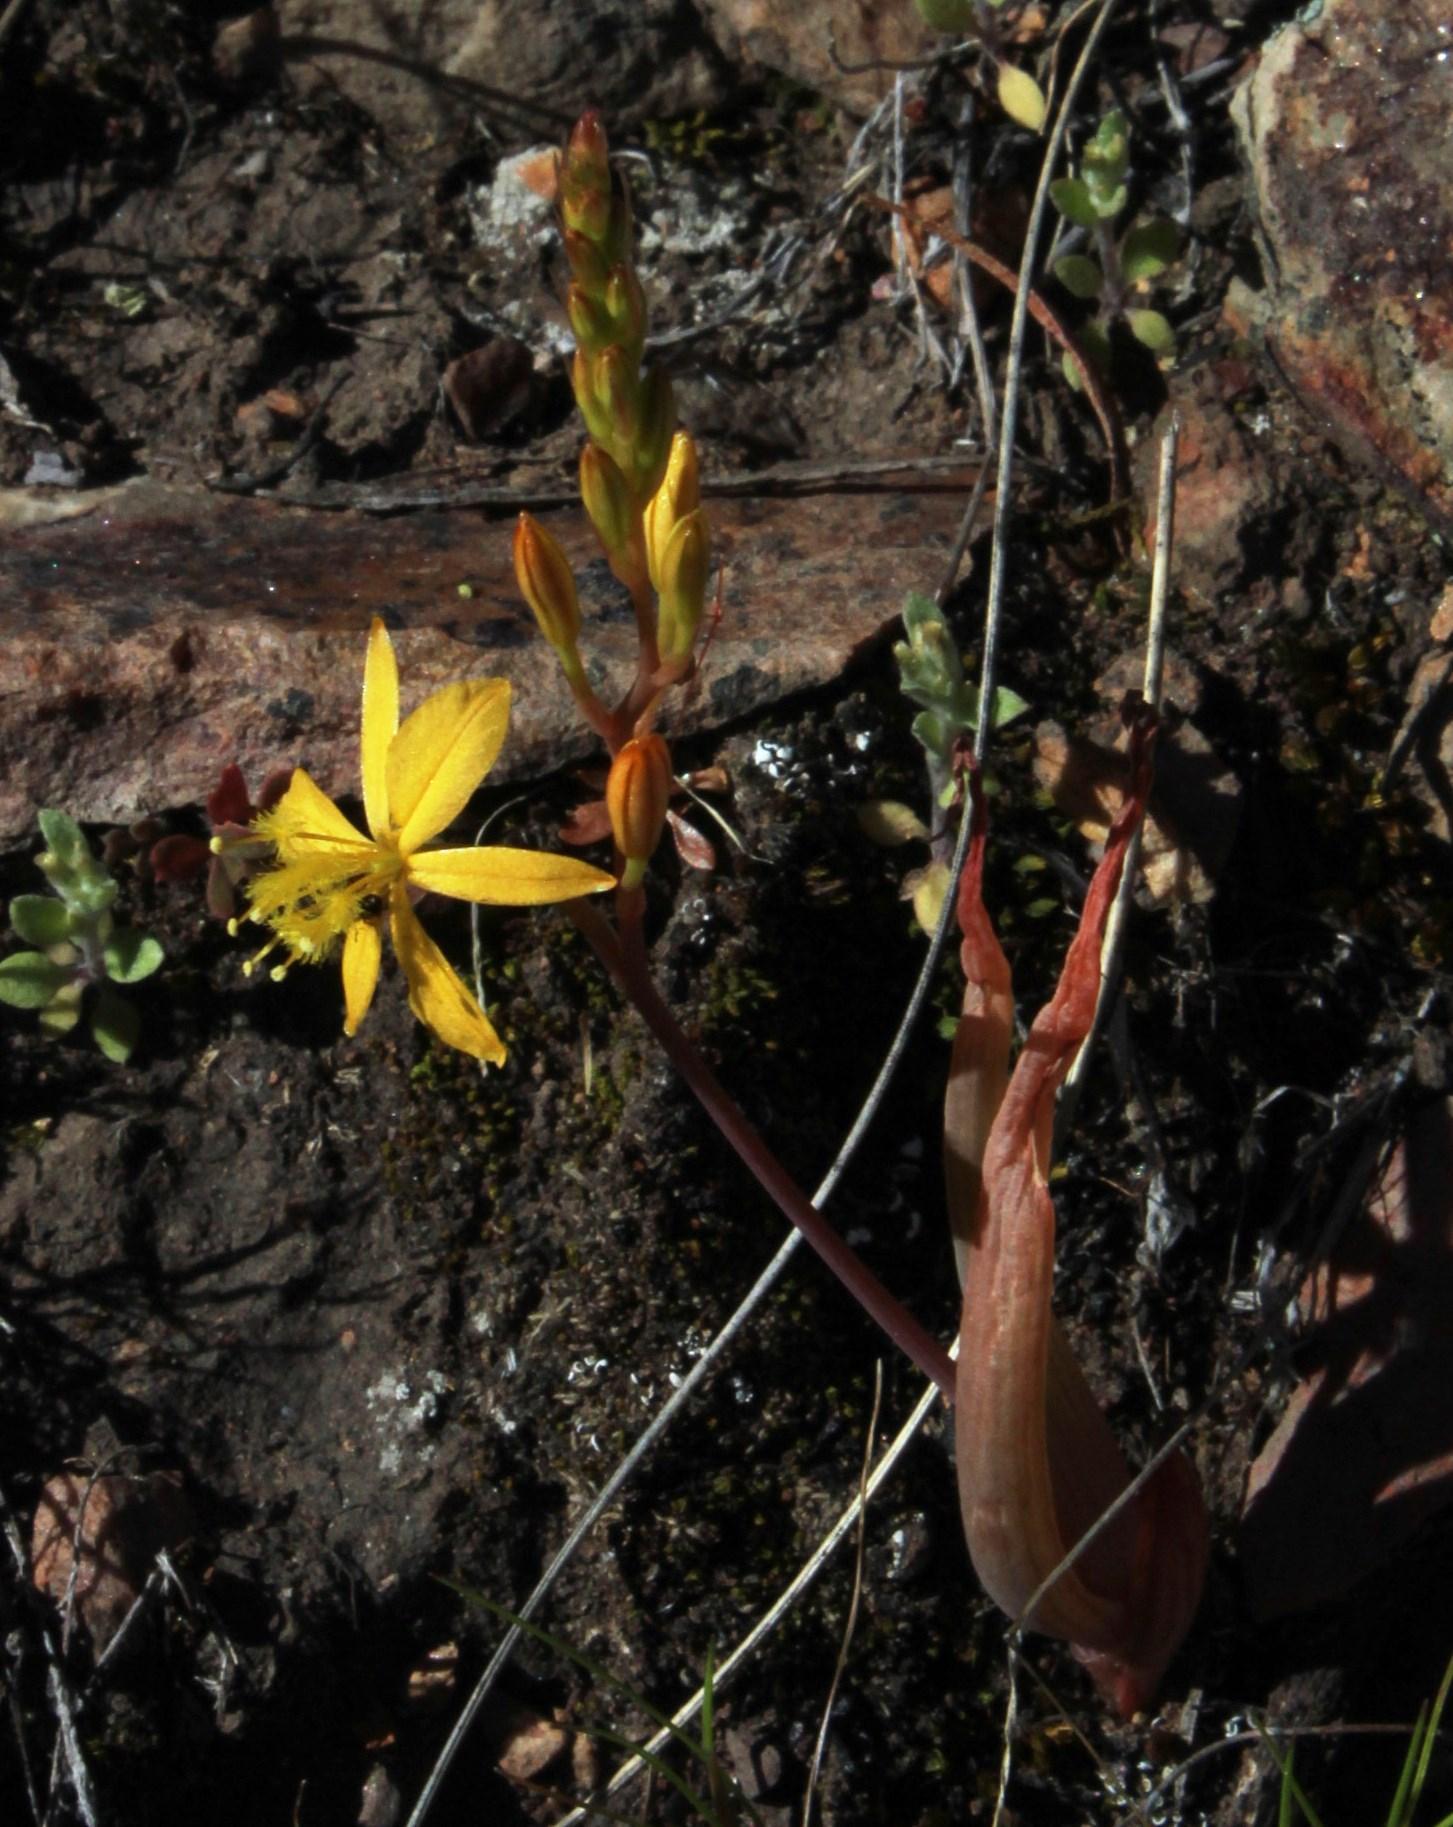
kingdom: Plantae
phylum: Tracheophyta
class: Liliopsida
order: Asparagales
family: Asphodelaceae
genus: Bulbine
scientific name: Bulbine praemorsa
